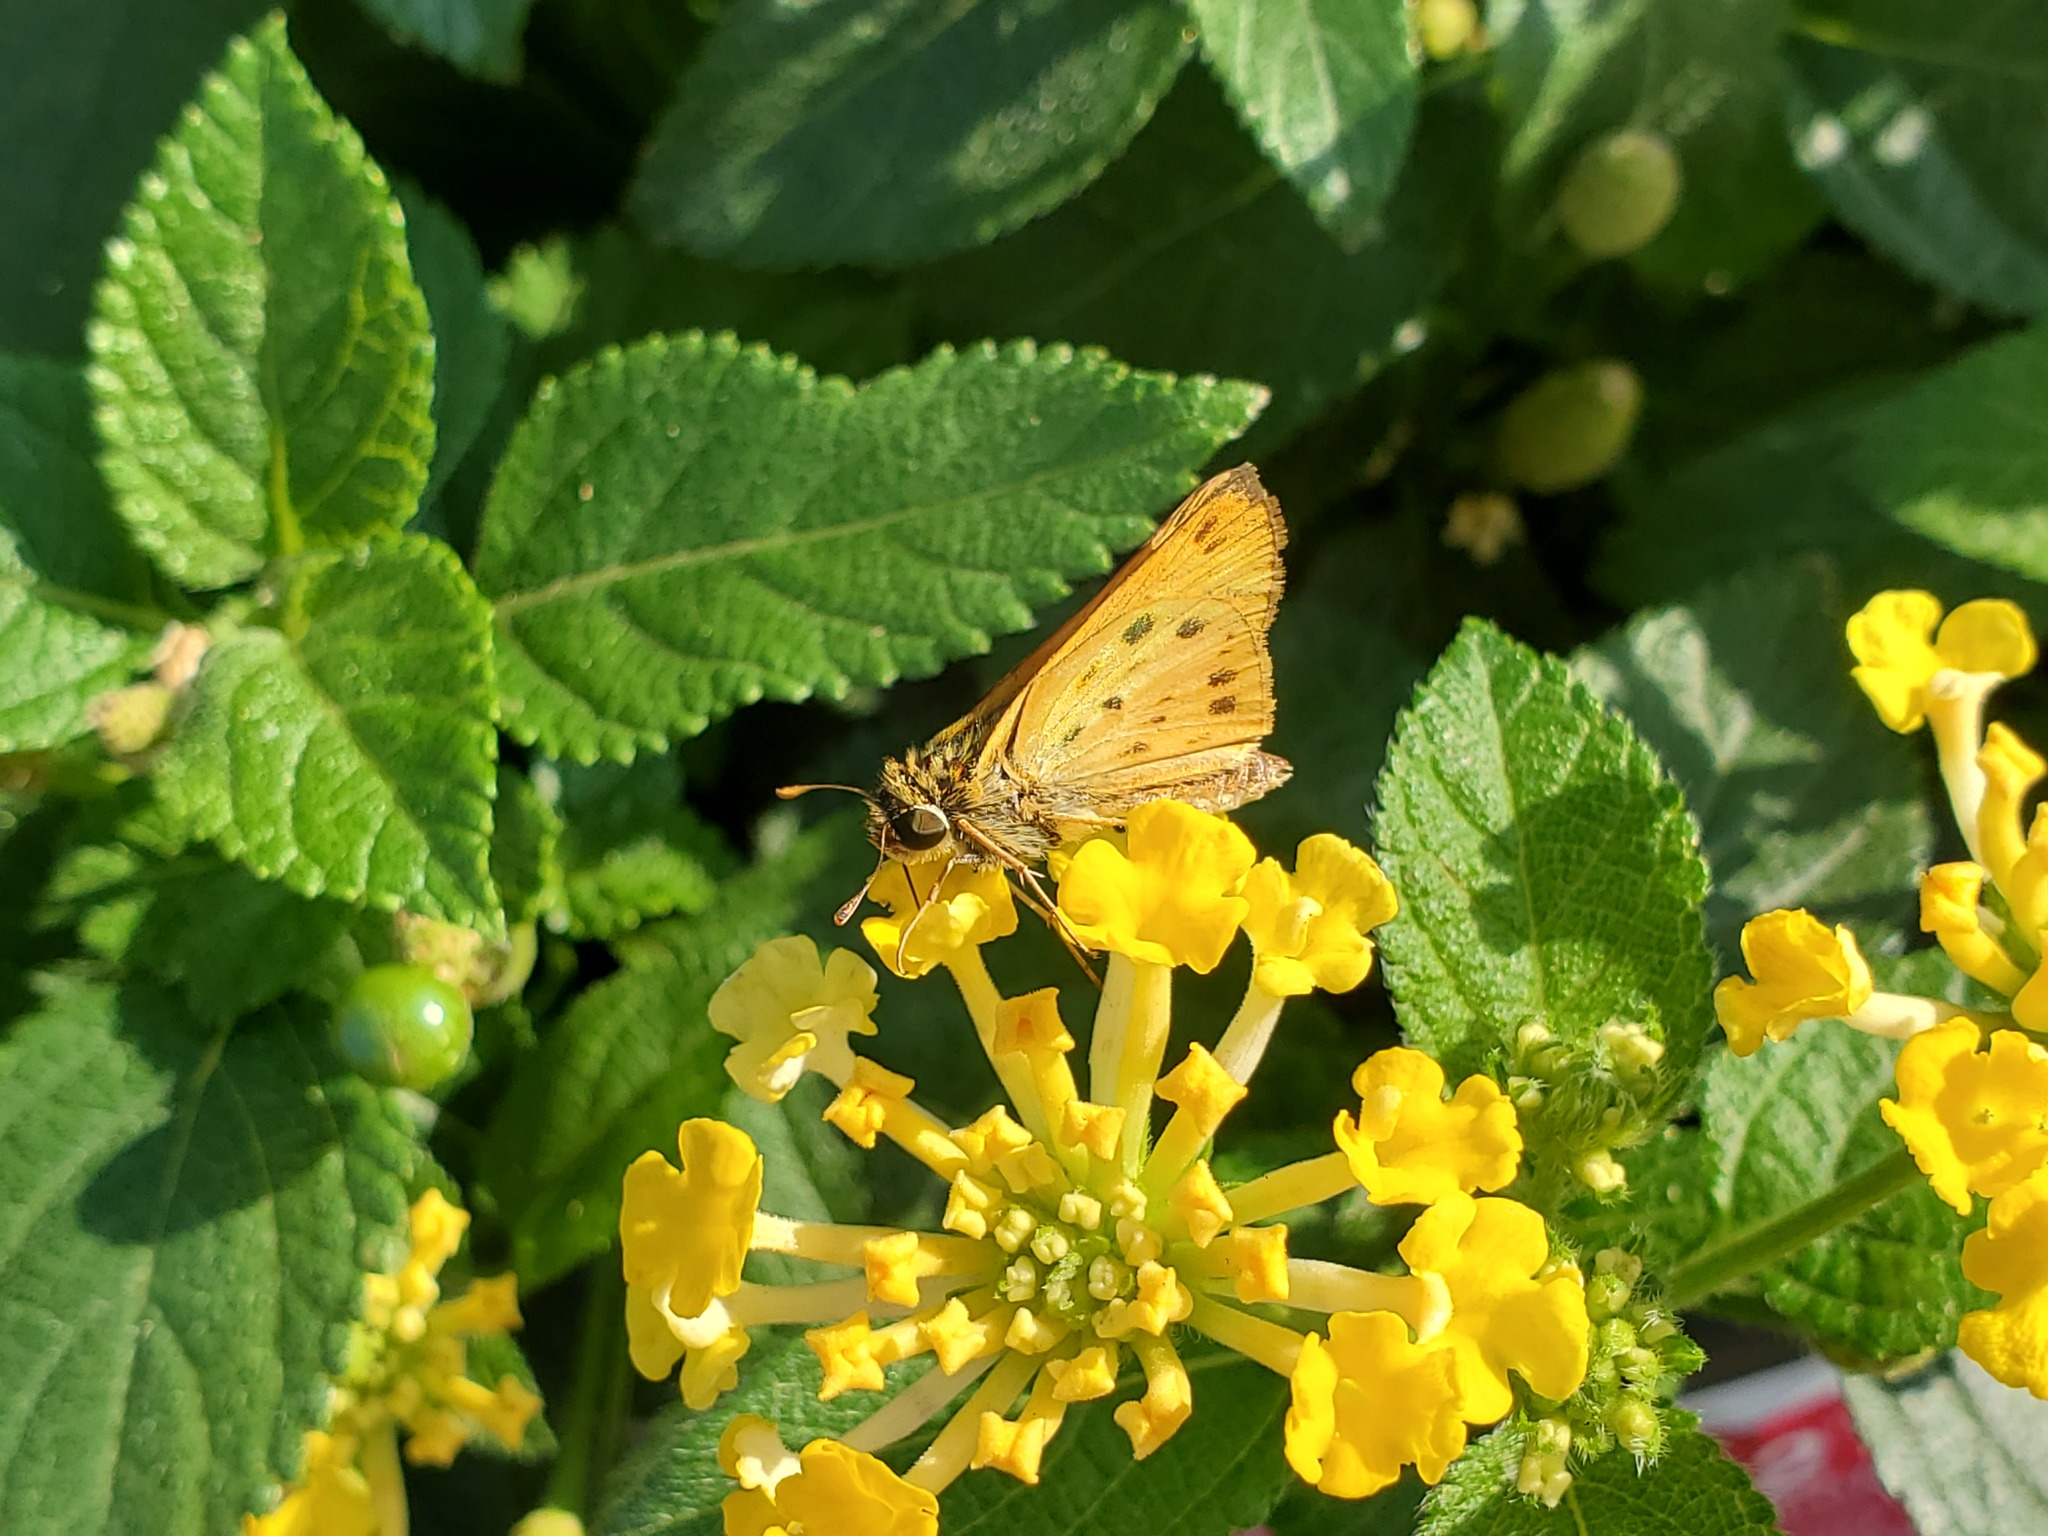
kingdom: Animalia
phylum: Arthropoda
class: Insecta
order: Lepidoptera
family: Hesperiidae
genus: Hylephila
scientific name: Hylephila phyleus
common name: Fiery skipper
